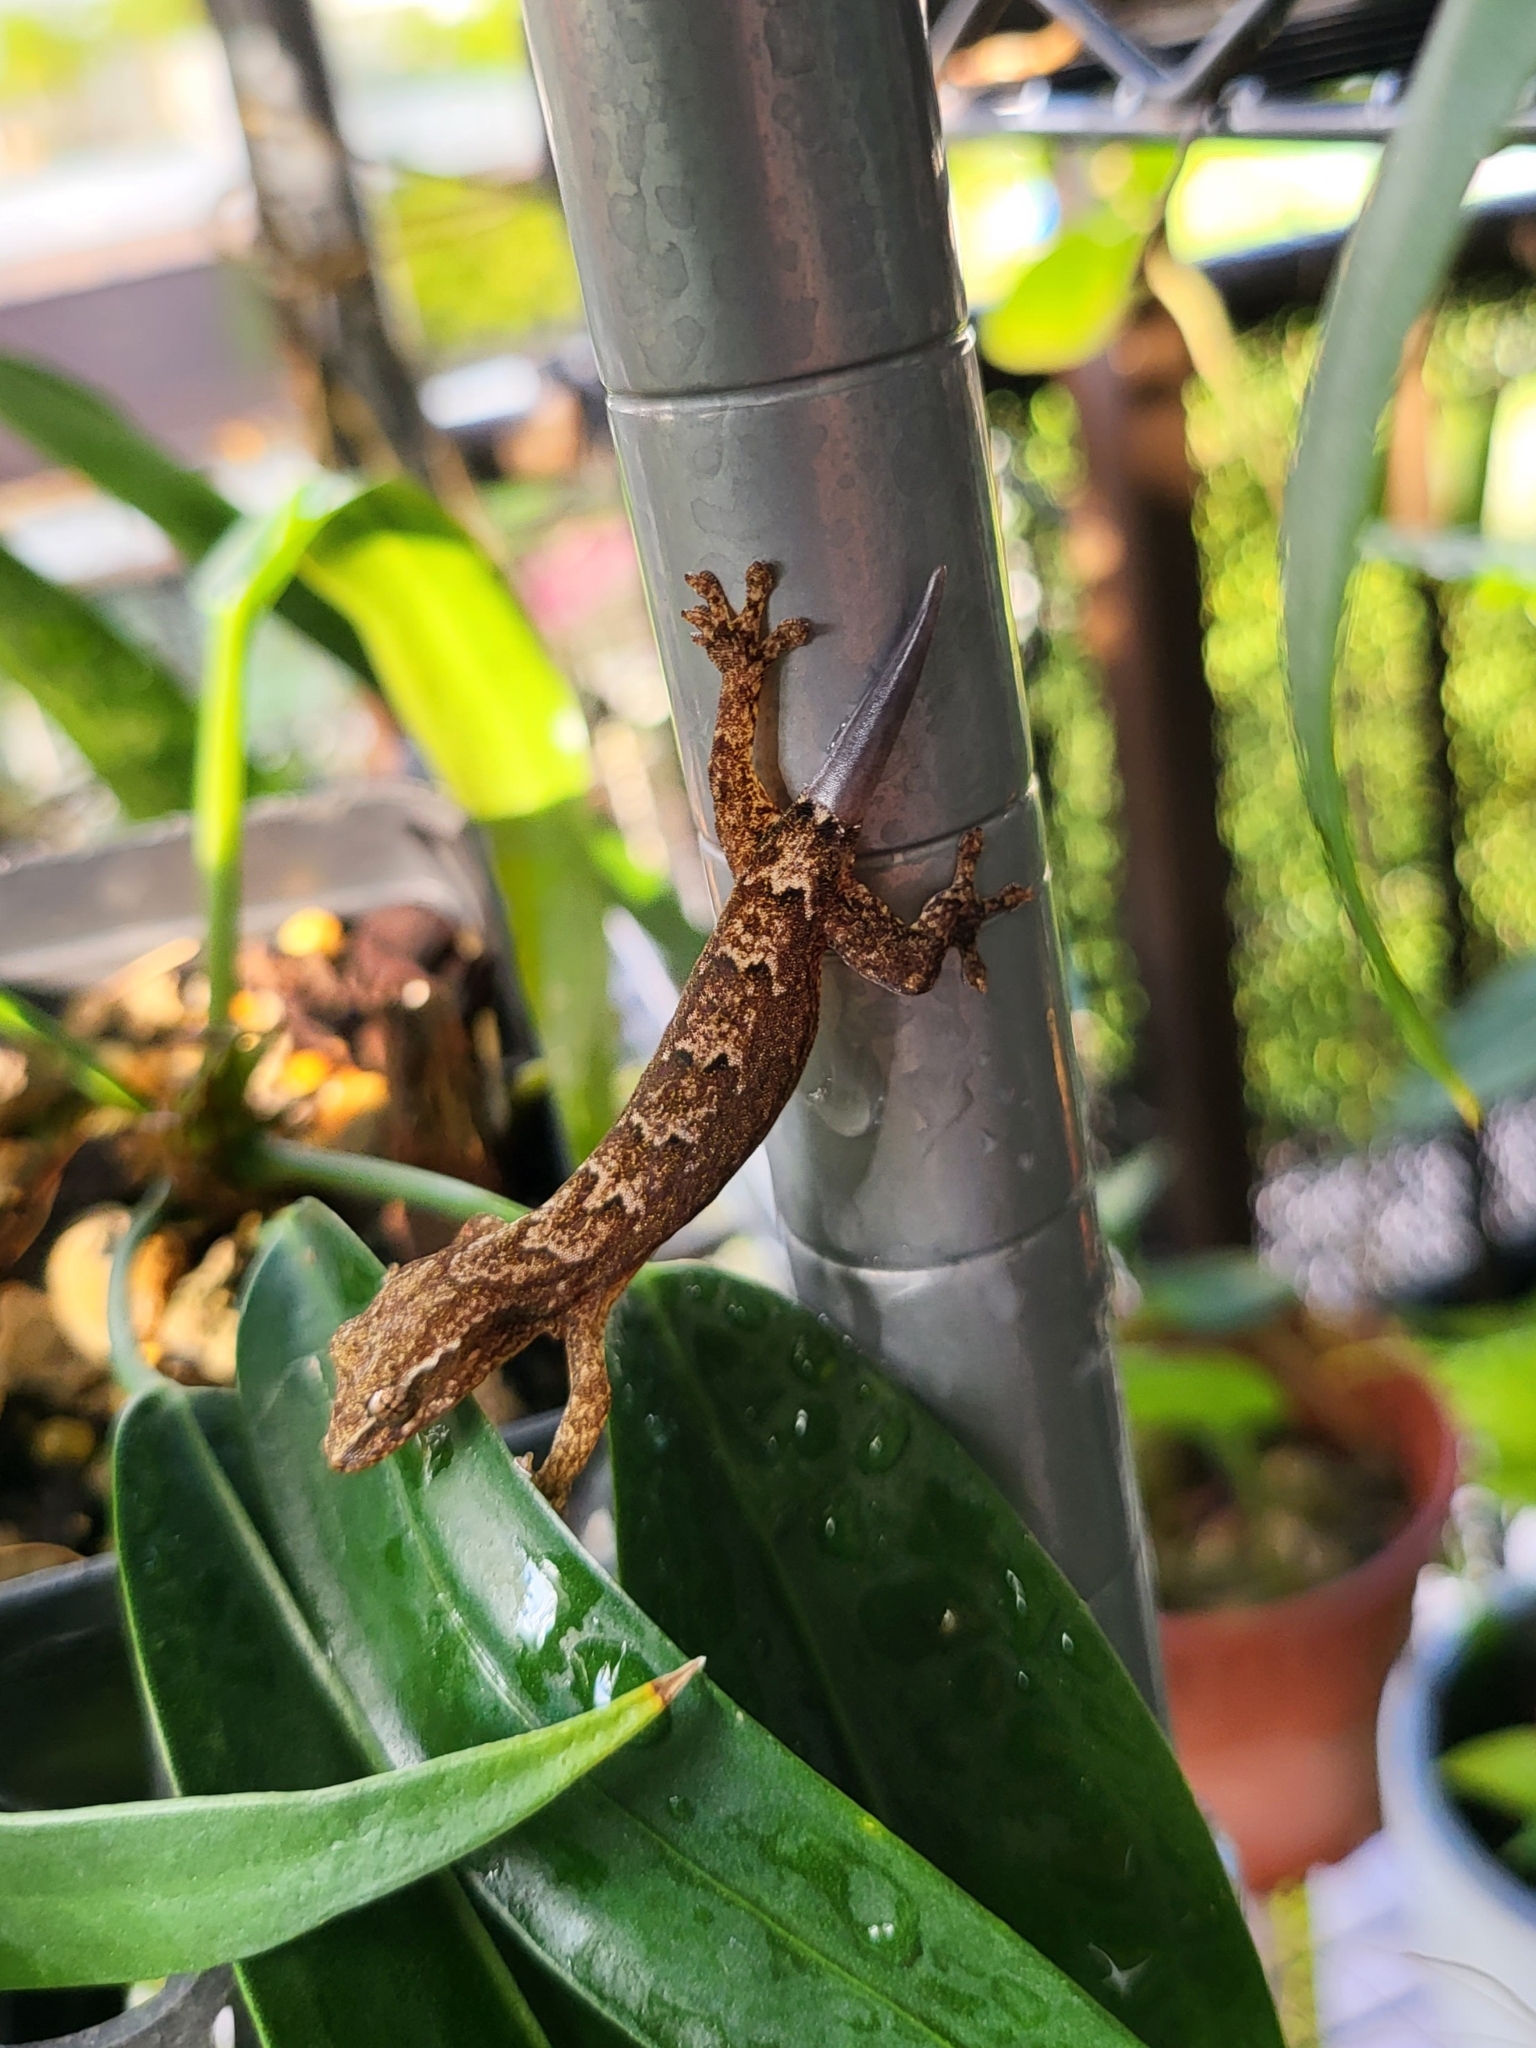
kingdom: Animalia
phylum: Chordata
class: Squamata
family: Gekkonidae
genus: Lepidodactylus
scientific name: Lepidodactylus lugubris
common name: Mourning gecko
